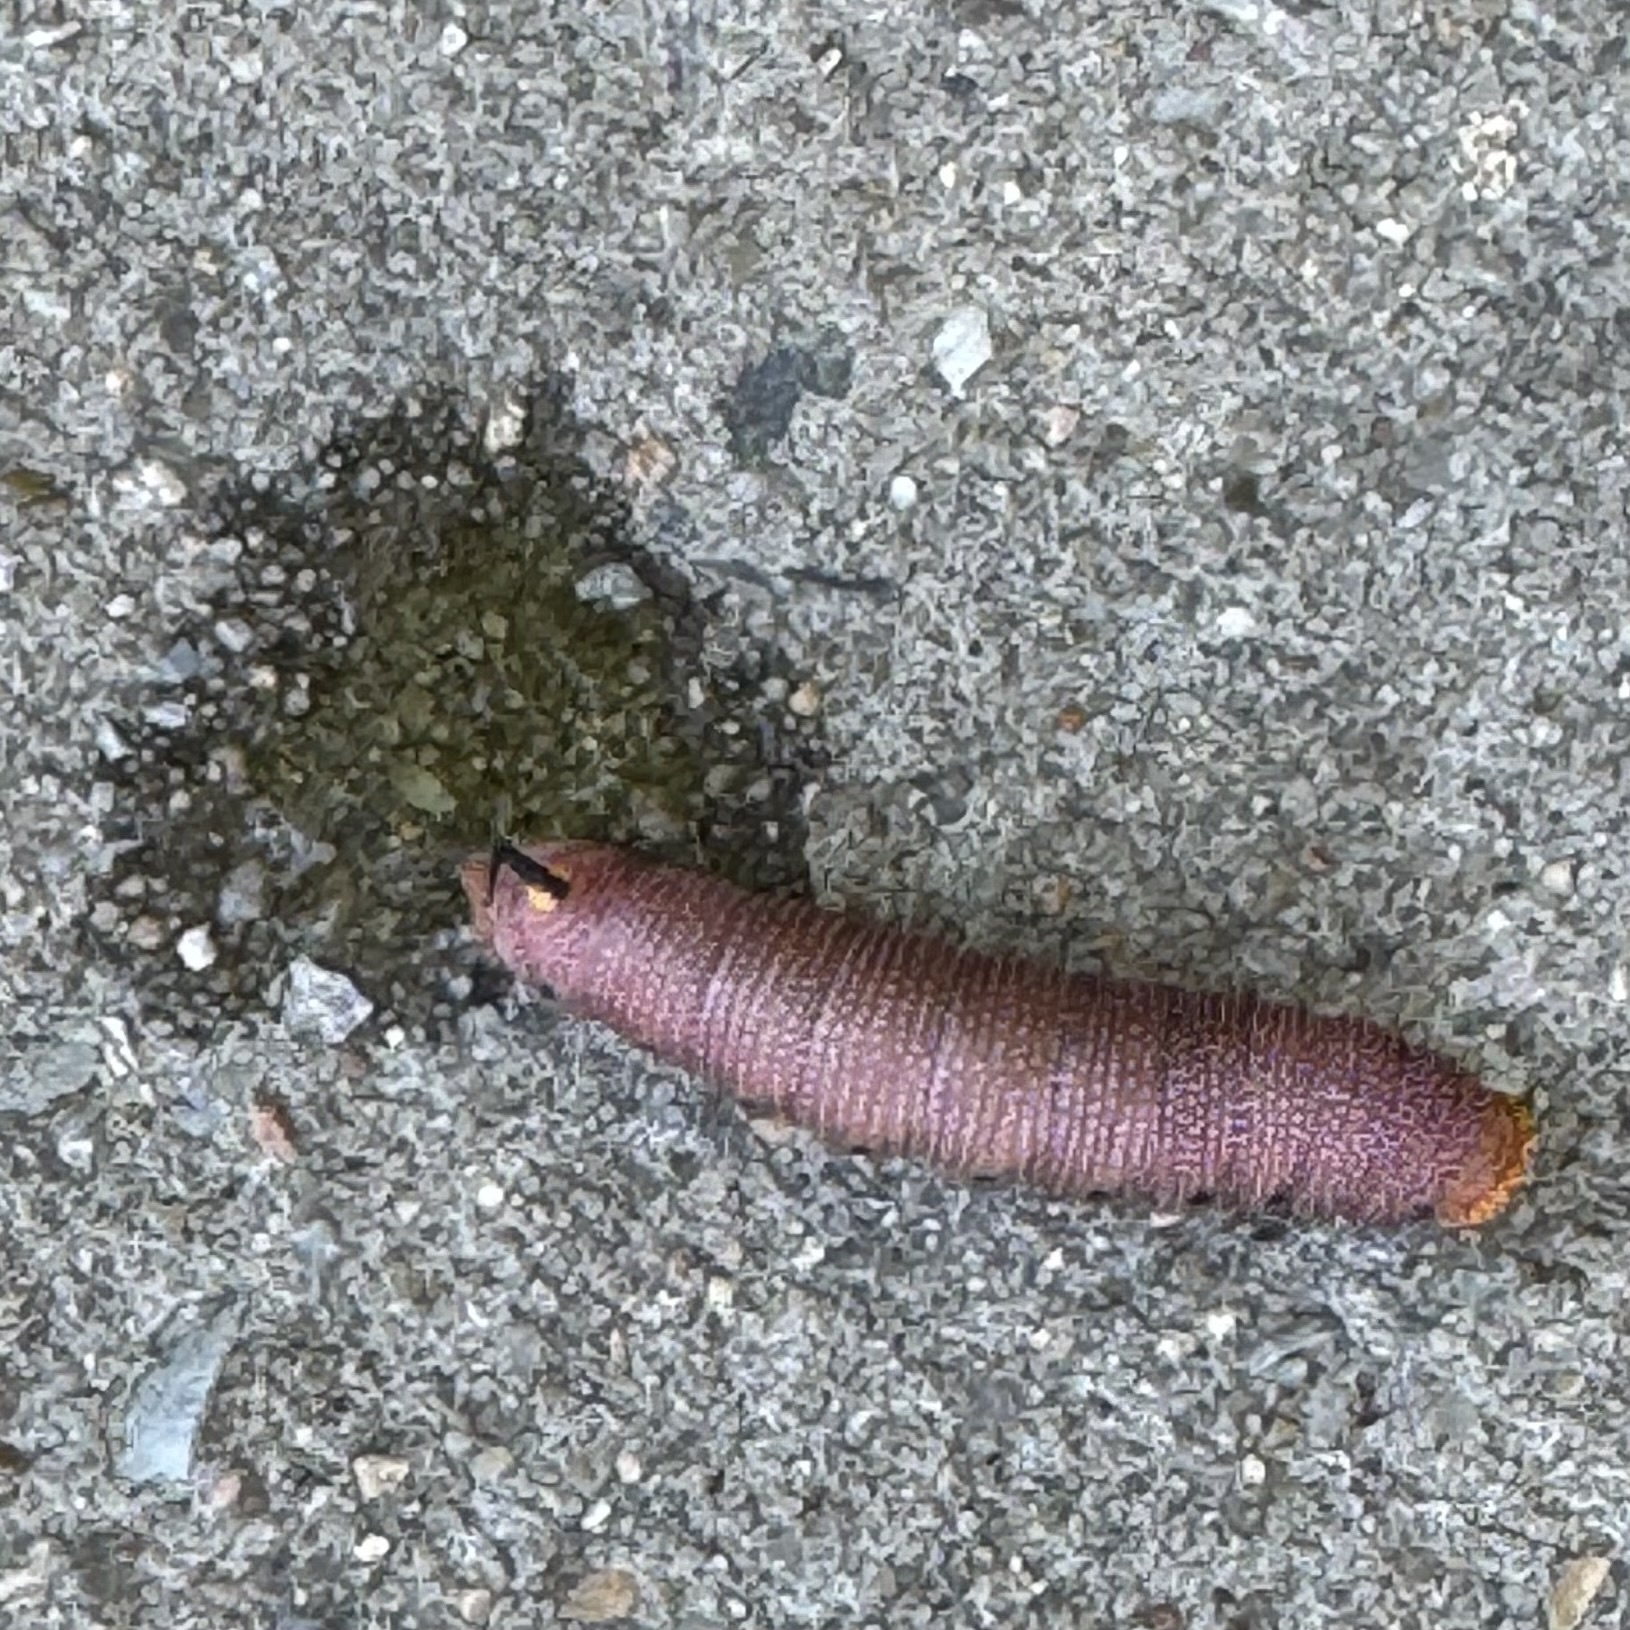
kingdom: Animalia
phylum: Arthropoda
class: Insecta
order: Lepidoptera
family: Sphingidae
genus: Hemaris
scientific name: Hemaris diffinis
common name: Bumblebee moth
